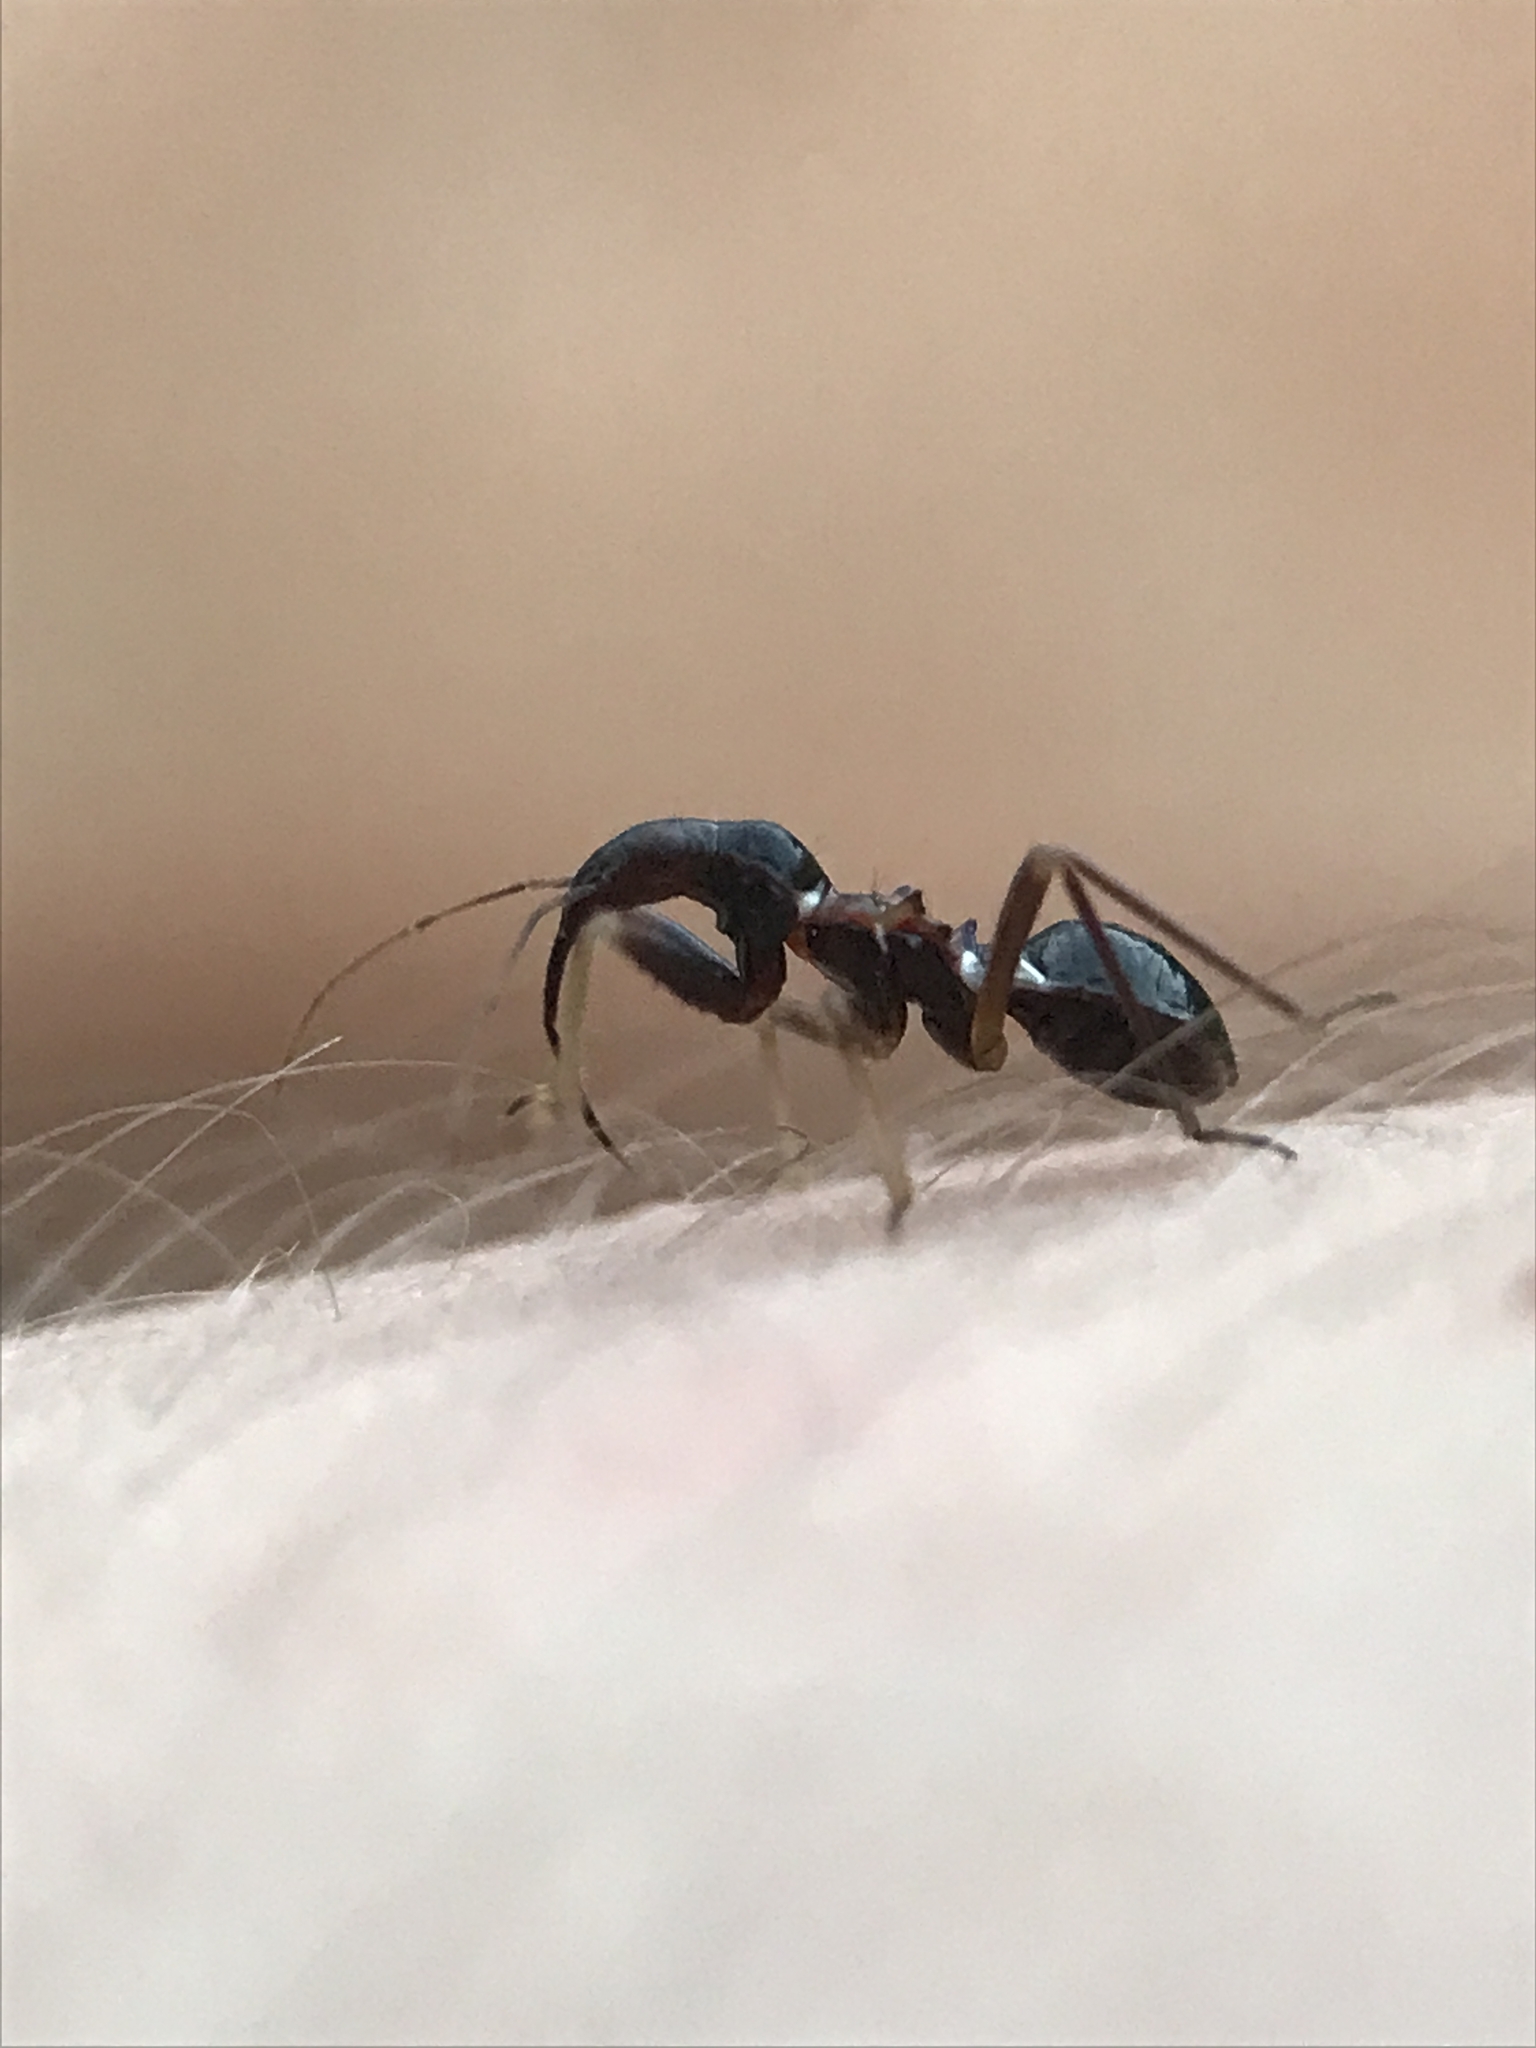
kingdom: Animalia
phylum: Arthropoda
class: Insecta
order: Hemiptera
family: Nabidae
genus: Himacerus
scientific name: Himacerus mirmicoides
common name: Ant damsel bug
